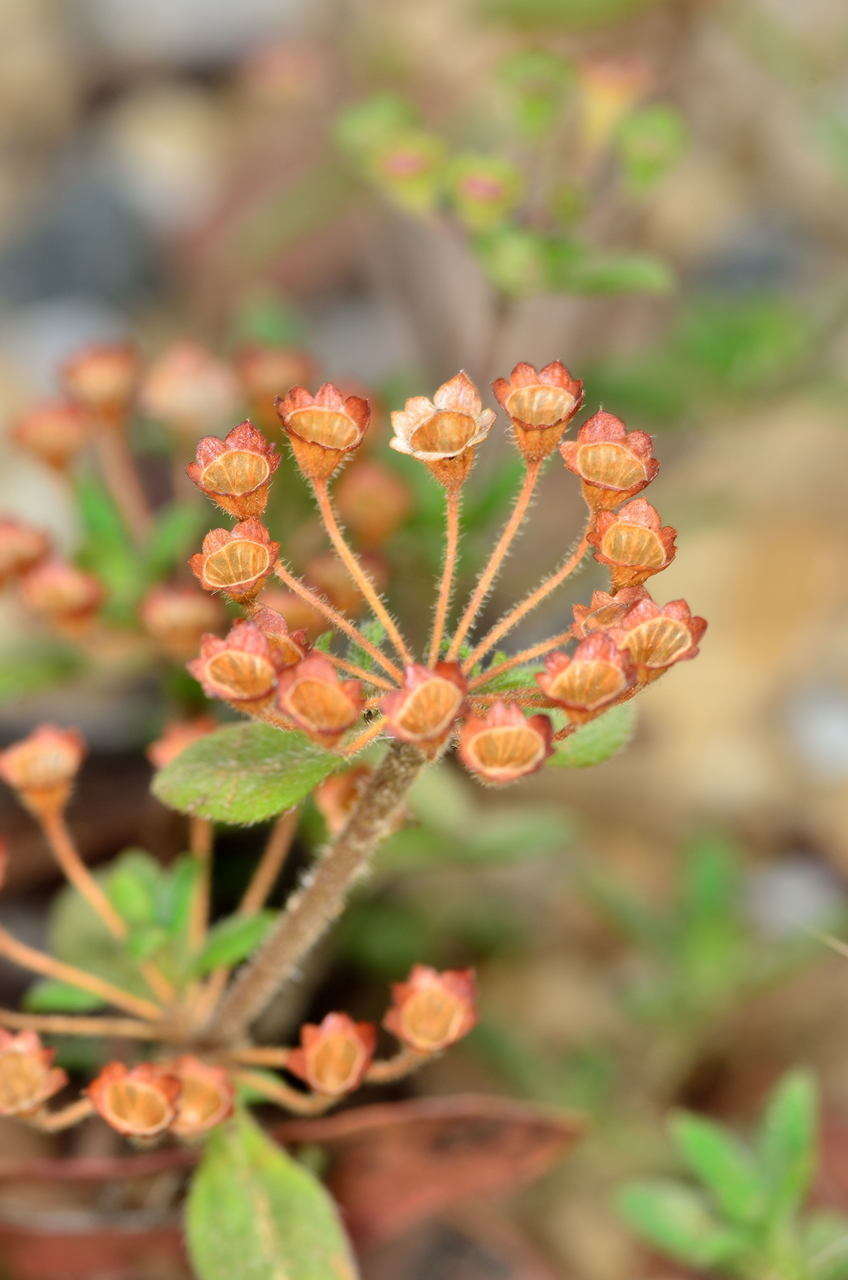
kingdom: Plantae
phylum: Tracheophyta
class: Magnoliopsida
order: Gentianales
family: Rubiaceae
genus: Pomax
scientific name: Pomax umbellata
